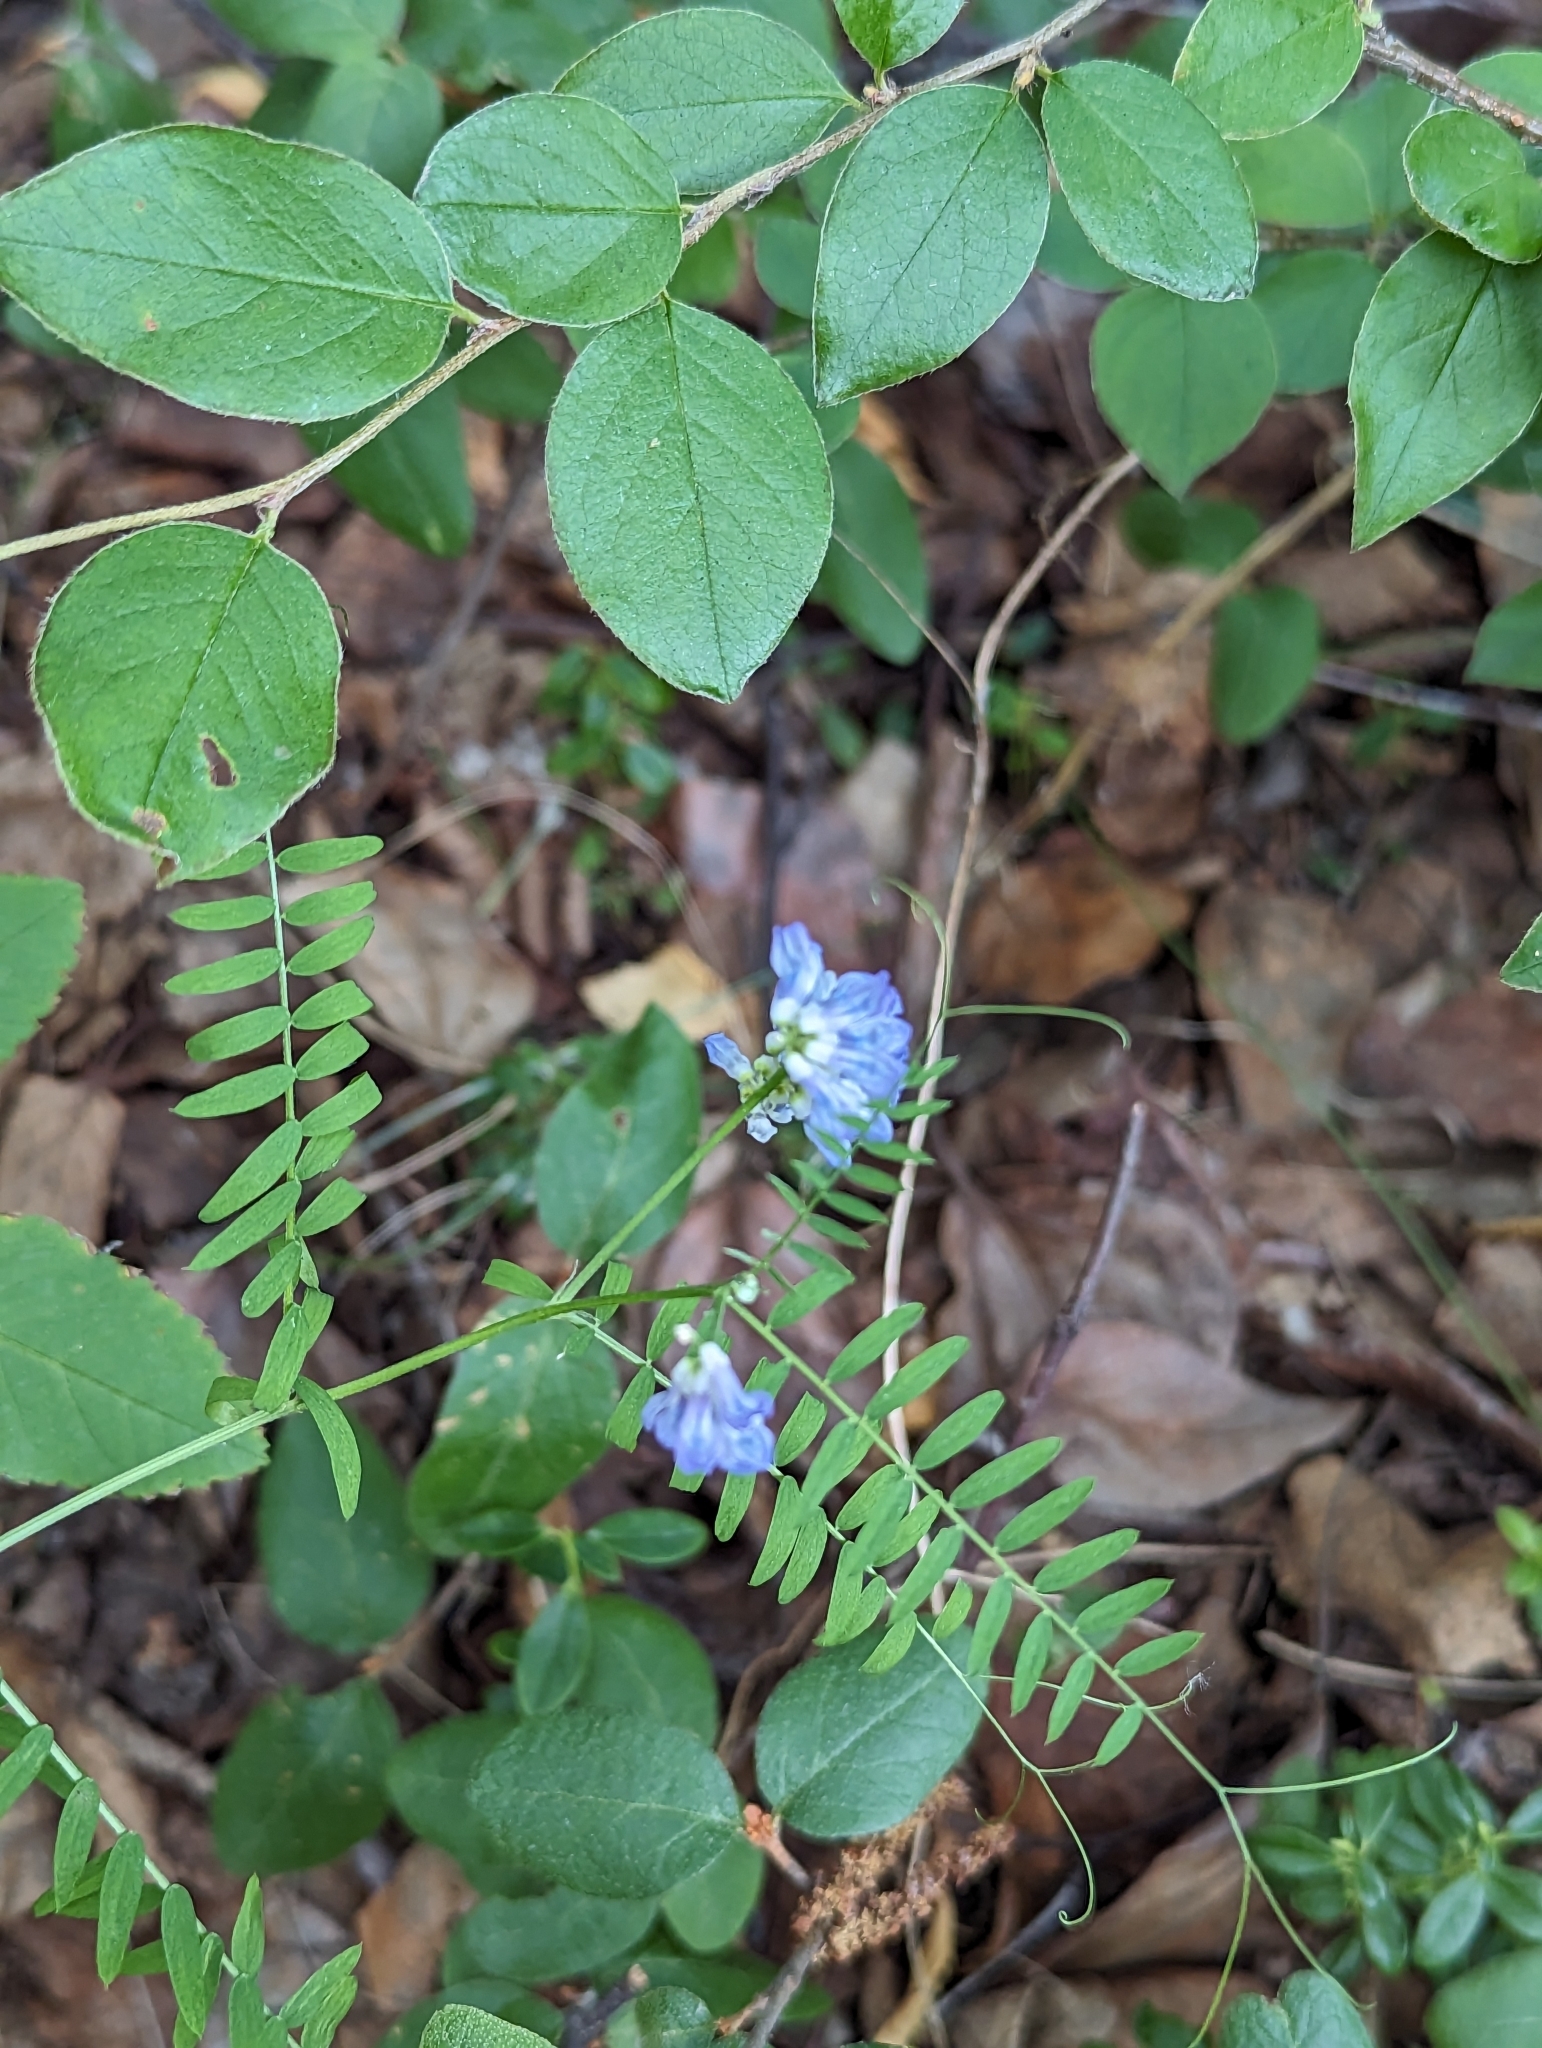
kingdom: Plantae
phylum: Tracheophyta
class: Magnoliopsida
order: Fabales
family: Fabaceae
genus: Vicia
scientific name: Vicia cracca
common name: Bird vetch
